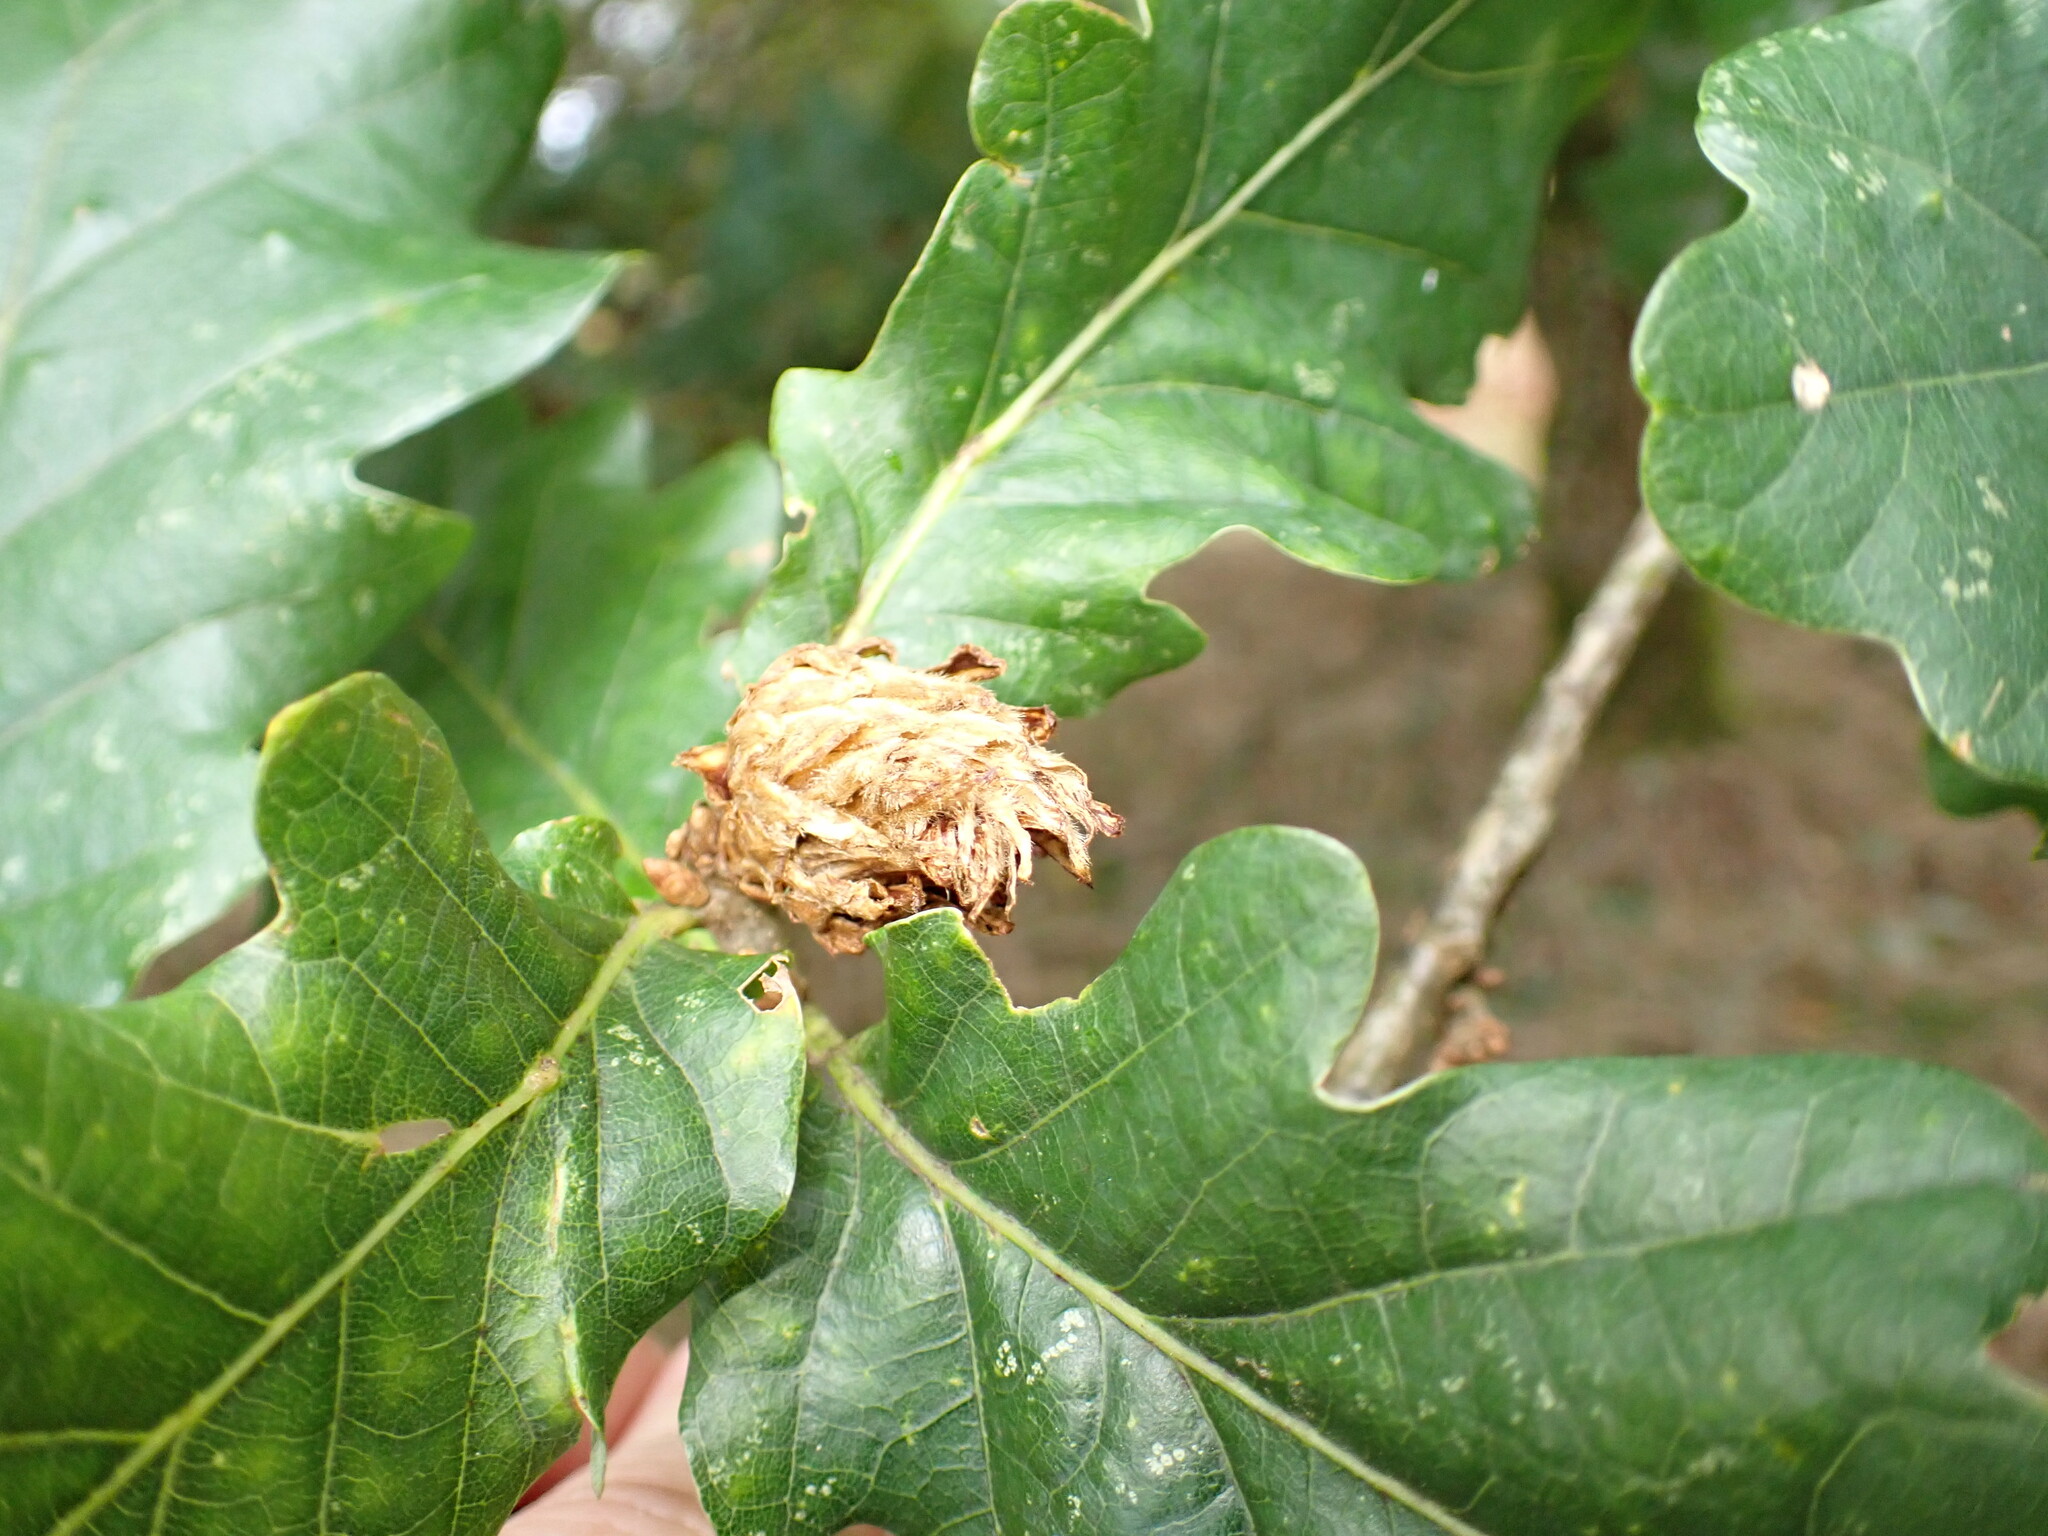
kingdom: Animalia
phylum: Arthropoda
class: Insecta
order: Hymenoptera
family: Cynipidae
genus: Andricus
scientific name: Andricus foecundatrix
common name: Artichoke gall
